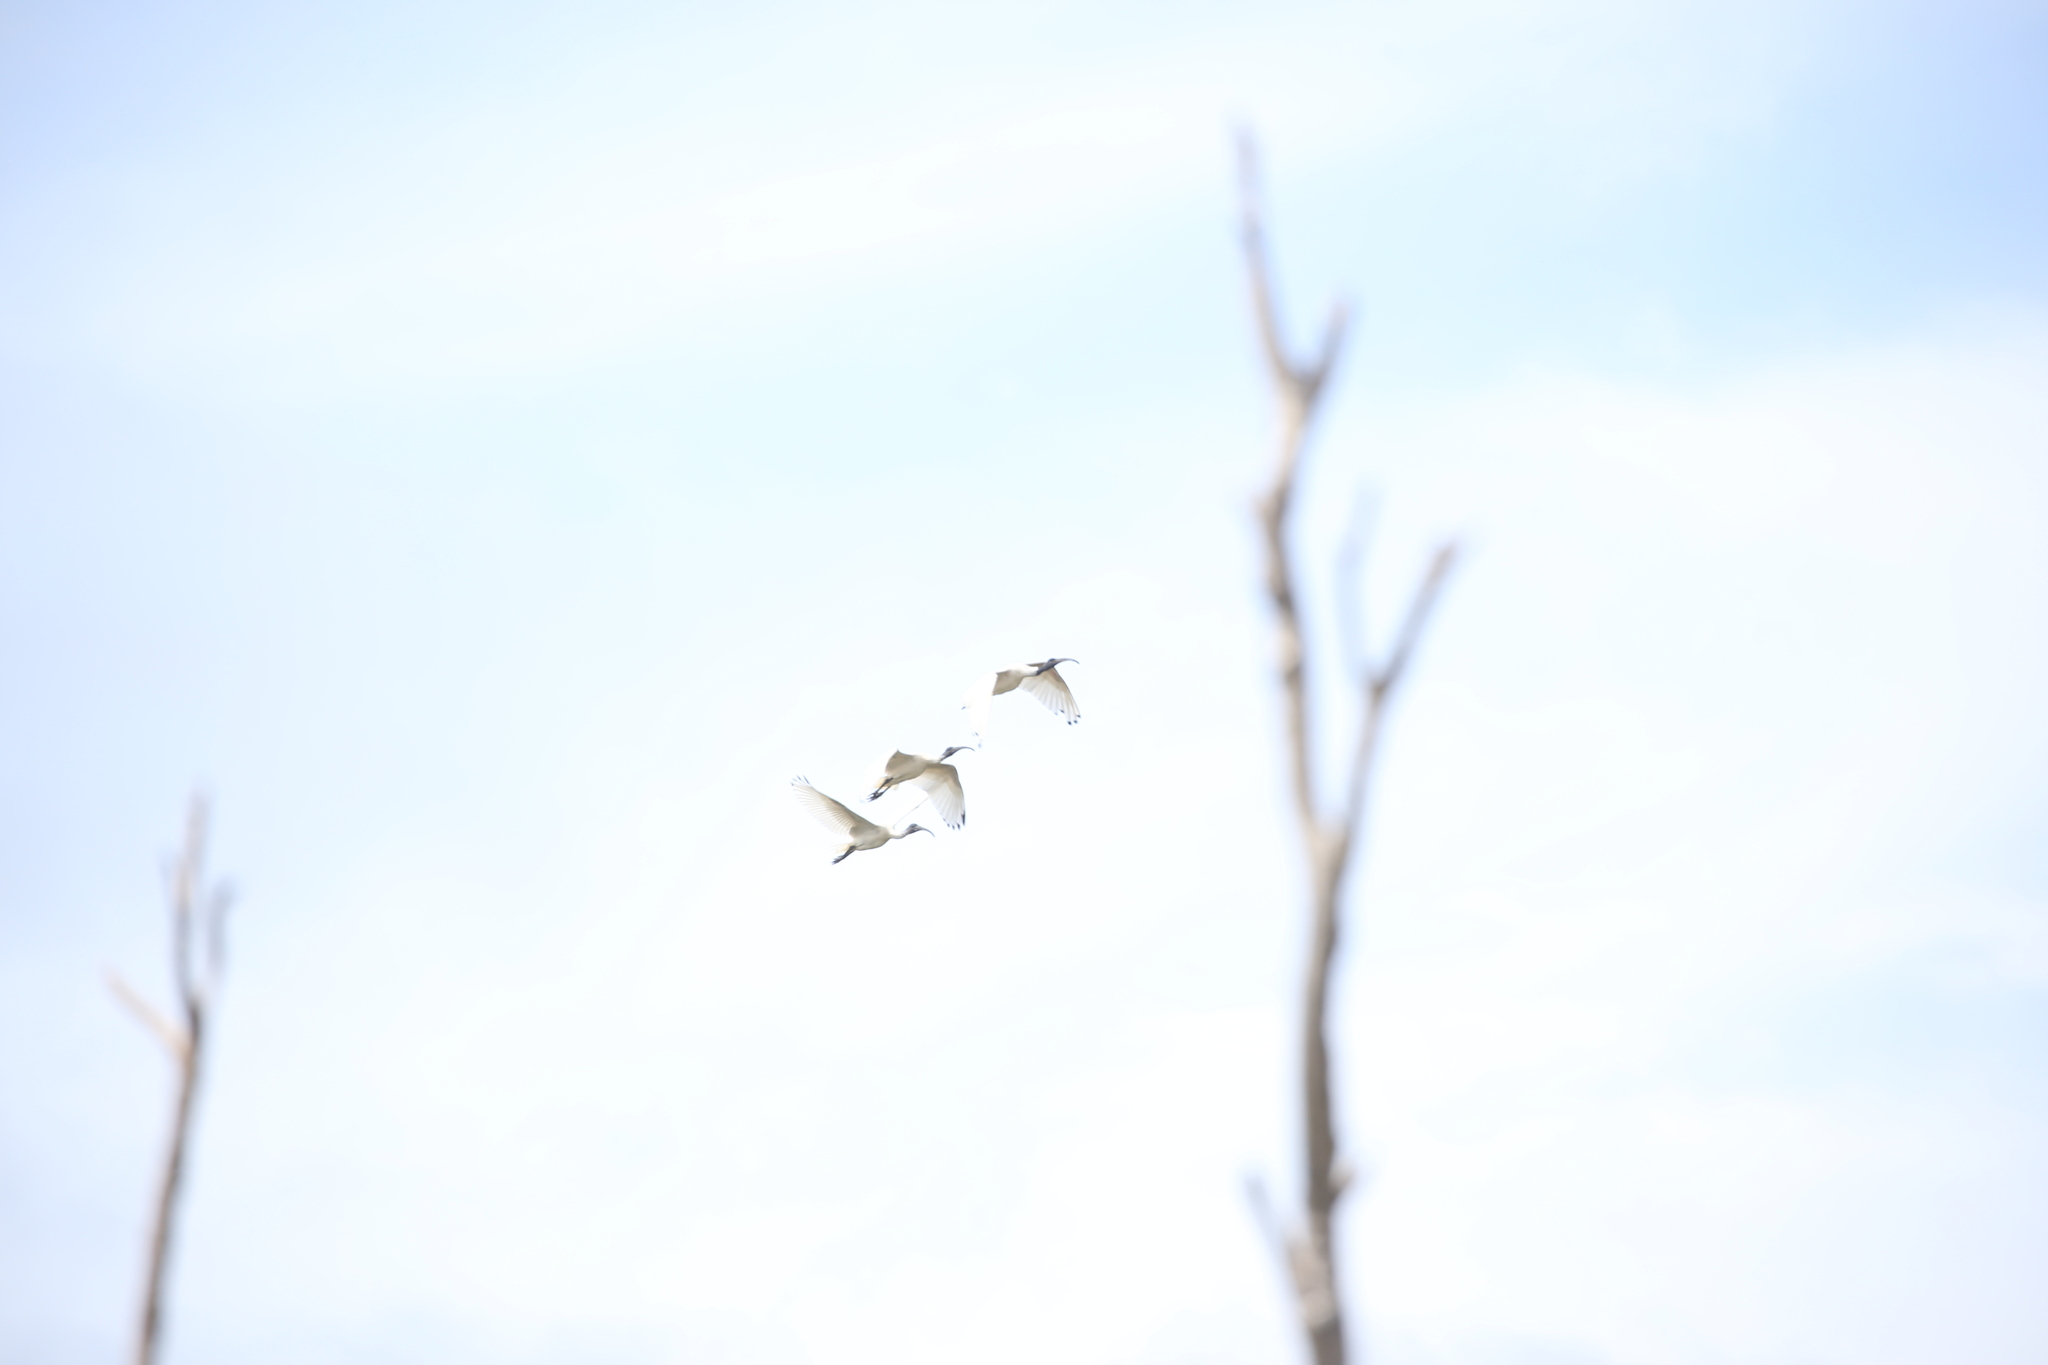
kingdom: Animalia
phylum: Chordata
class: Aves
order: Pelecaniformes
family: Threskiornithidae
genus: Threskiornis
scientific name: Threskiornis molucca
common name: Australian white ibis
